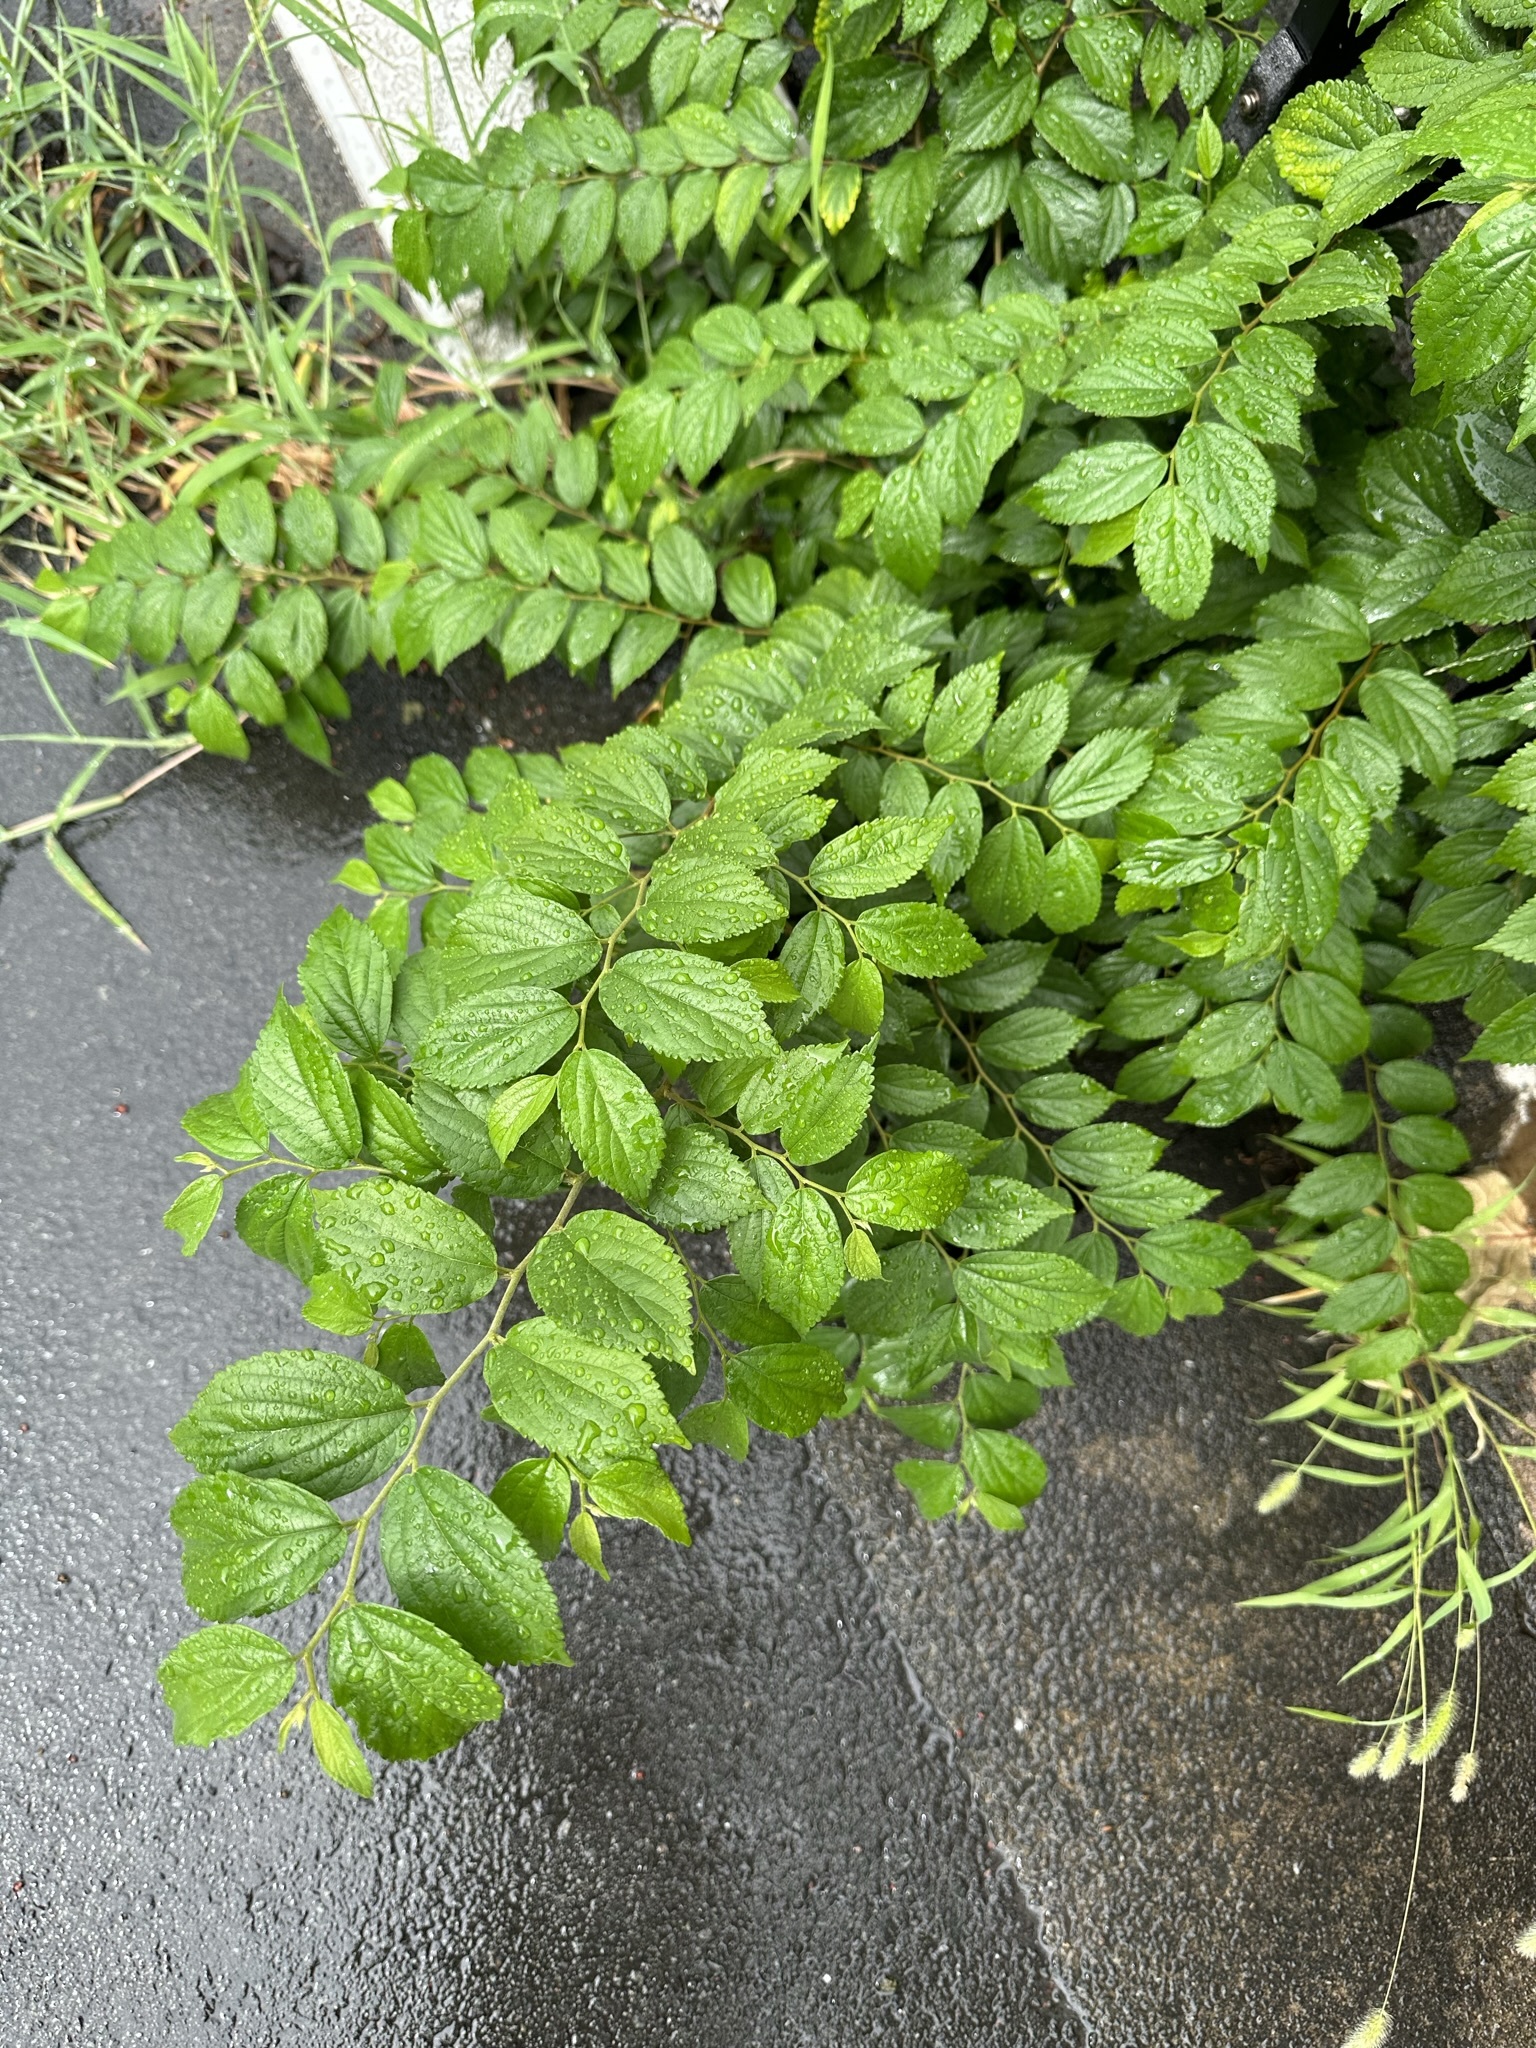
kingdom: Plantae
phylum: Tracheophyta
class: Magnoliopsida
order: Rosales
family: Cannabaceae
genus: Celtis
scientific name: Celtis sinensis
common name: Chinese hackberry
